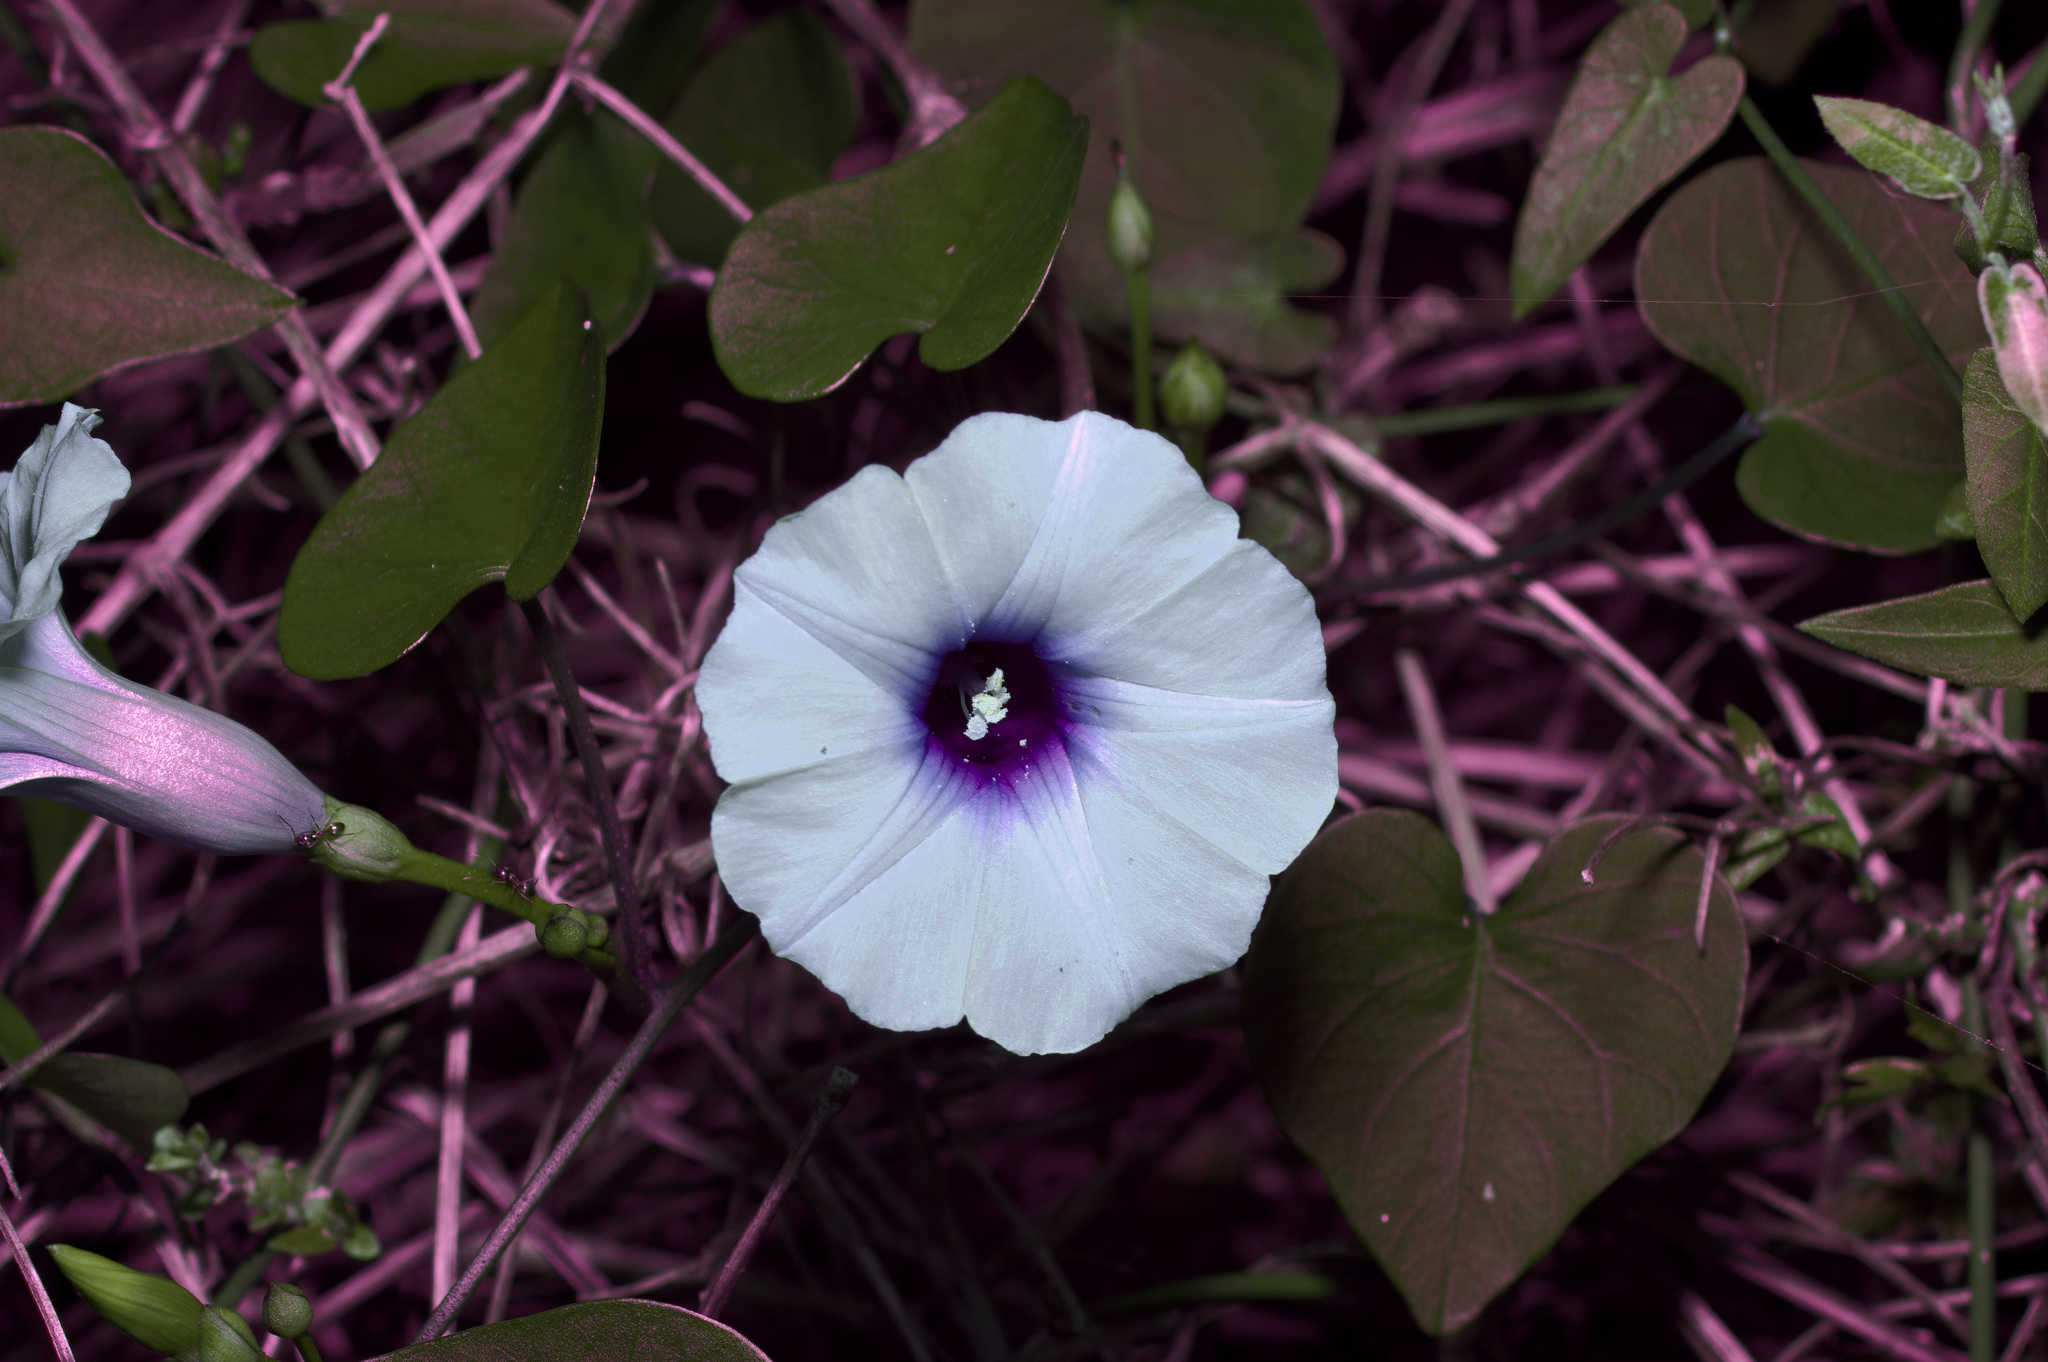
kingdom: Plantae
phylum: Tracheophyta
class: Magnoliopsida
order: Solanales
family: Convolvulaceae
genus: Ipomoea
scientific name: Ipomoea amnicola
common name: Redcenter morning-glory
